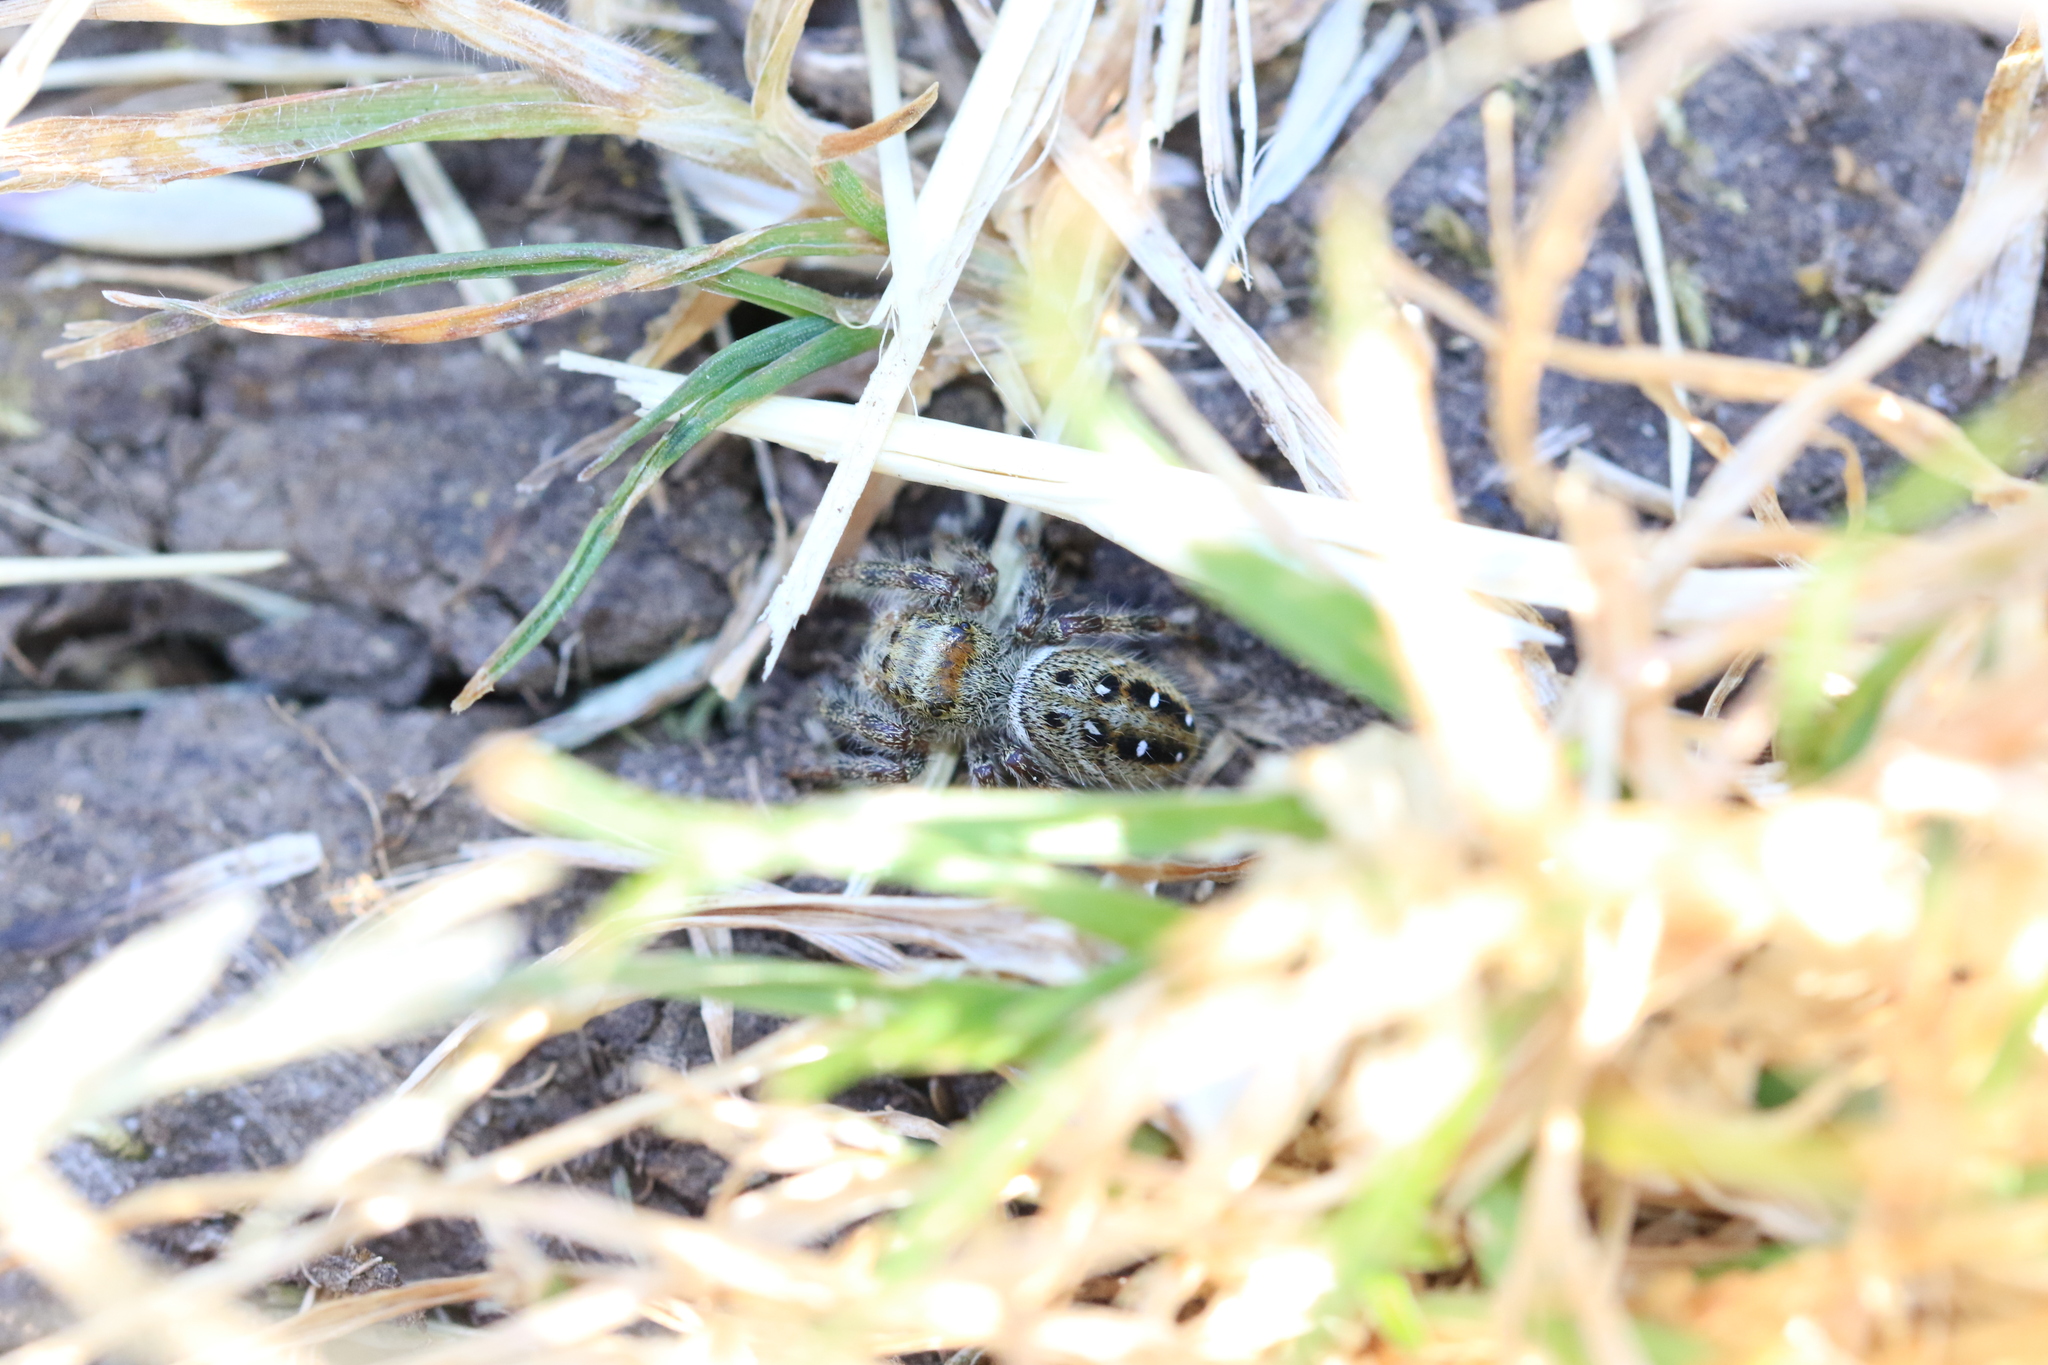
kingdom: Animalia
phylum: Arthropoda
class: Arachnida
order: Araneae
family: Salticidae
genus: Phidippus
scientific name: Phidippus clarus
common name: Brilliant jumping spider
